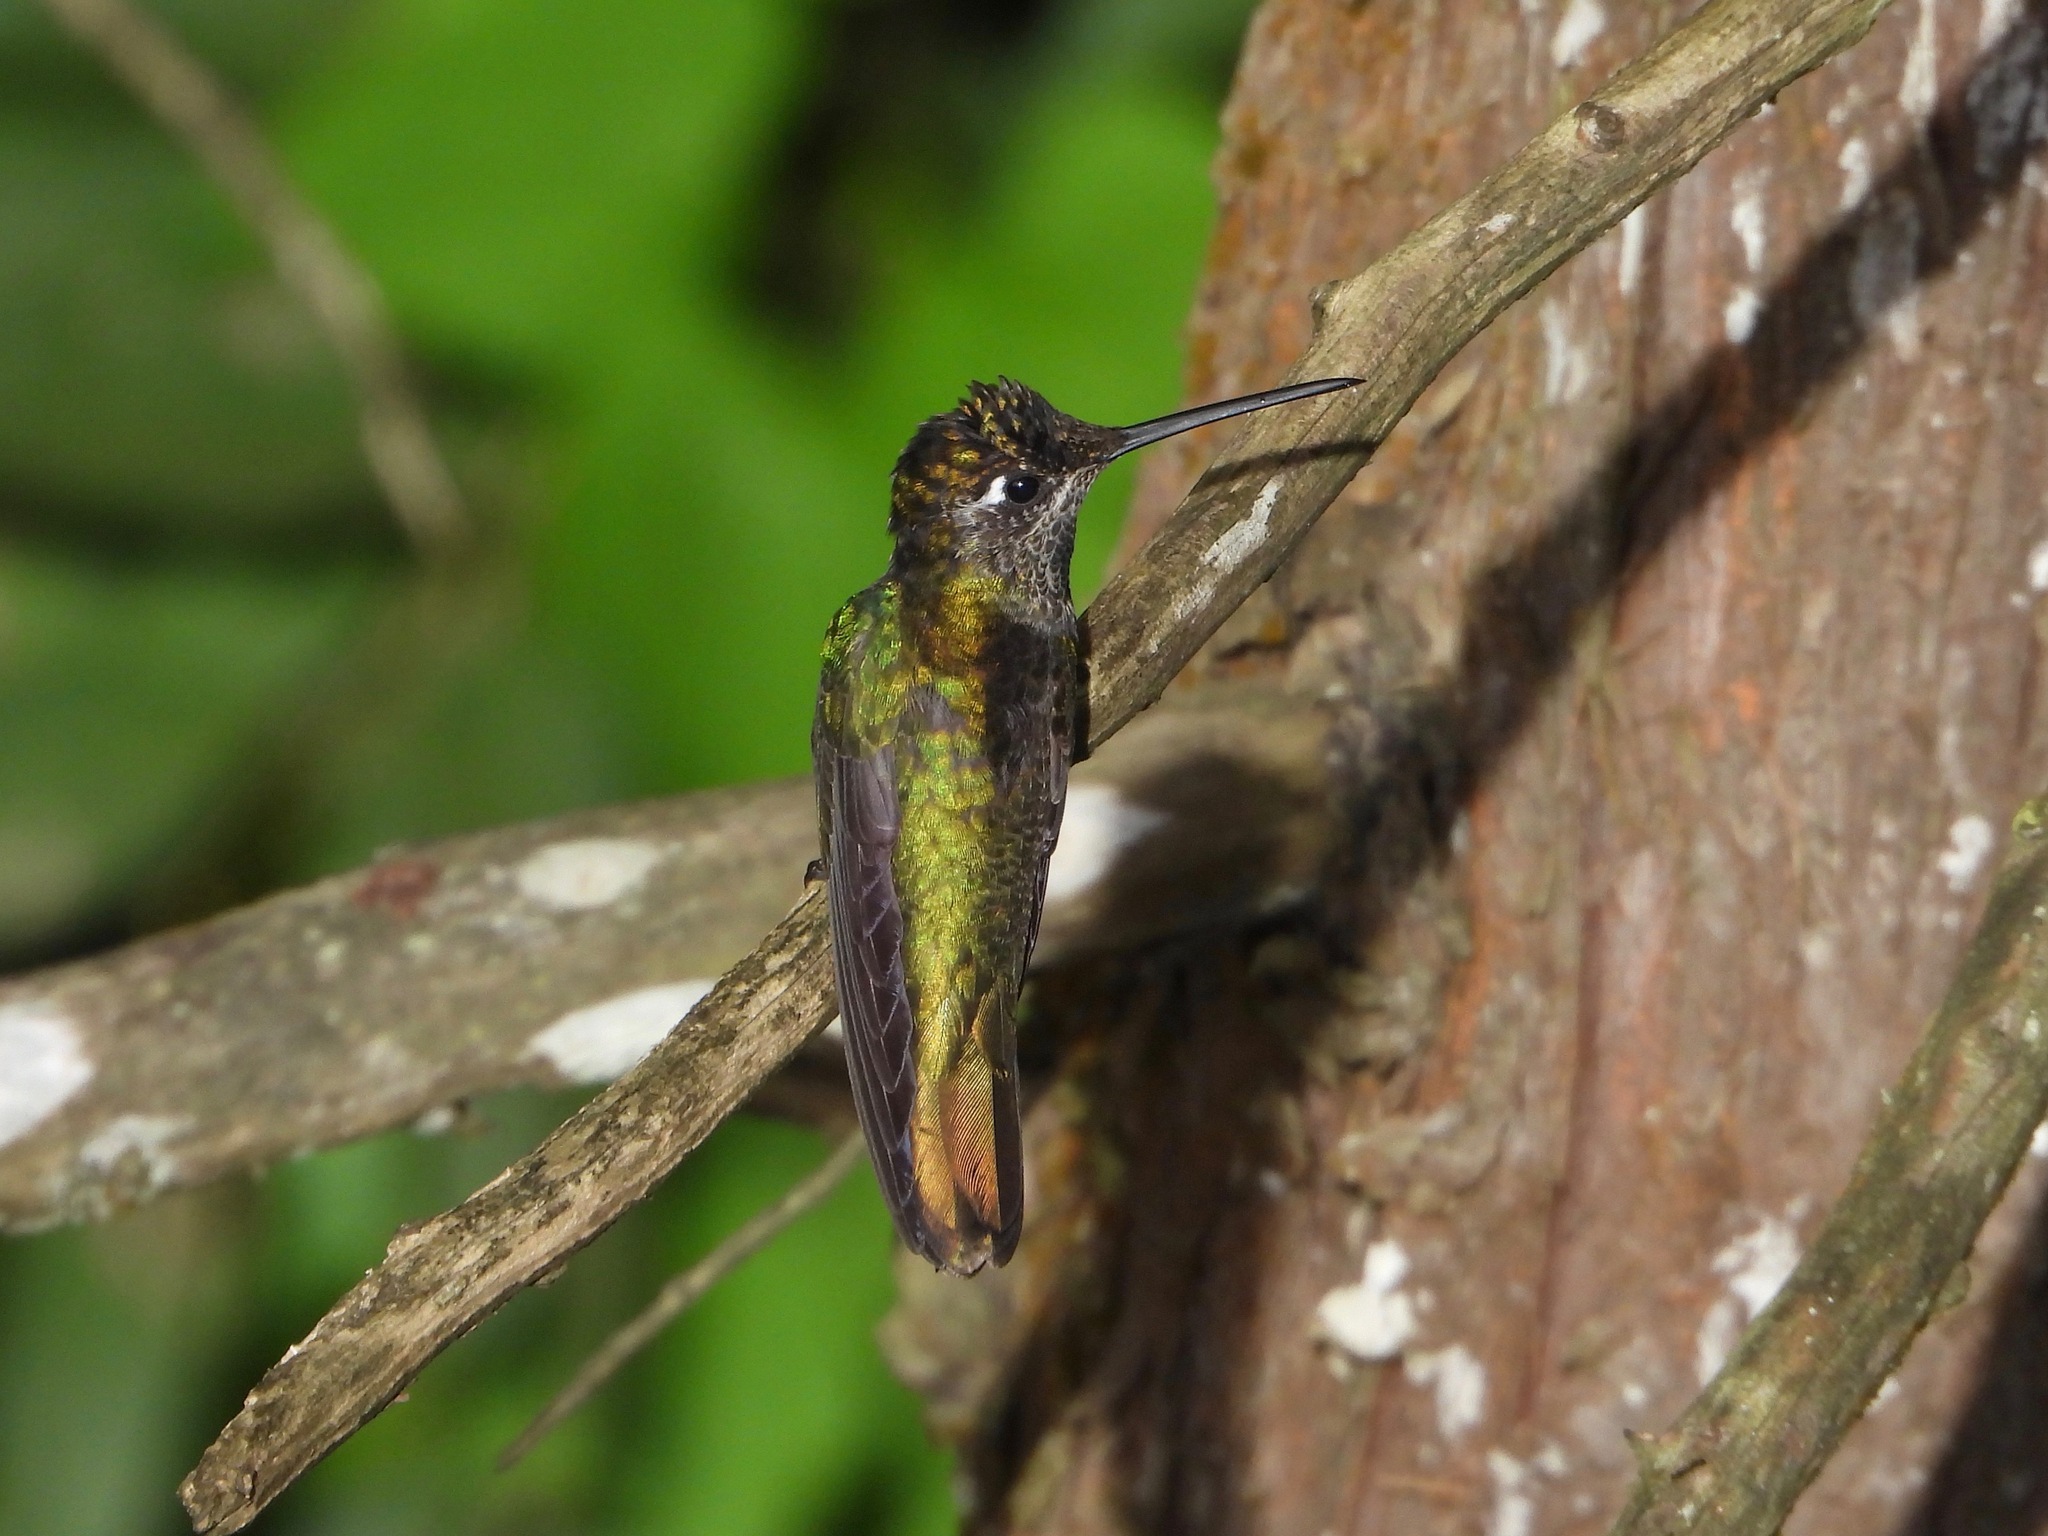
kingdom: Animalia
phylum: Chordata
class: Aves
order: Apodiformes
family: Trochilidae
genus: Eugenes
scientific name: Eugenes fulgens
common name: Magnificent hummingbird
